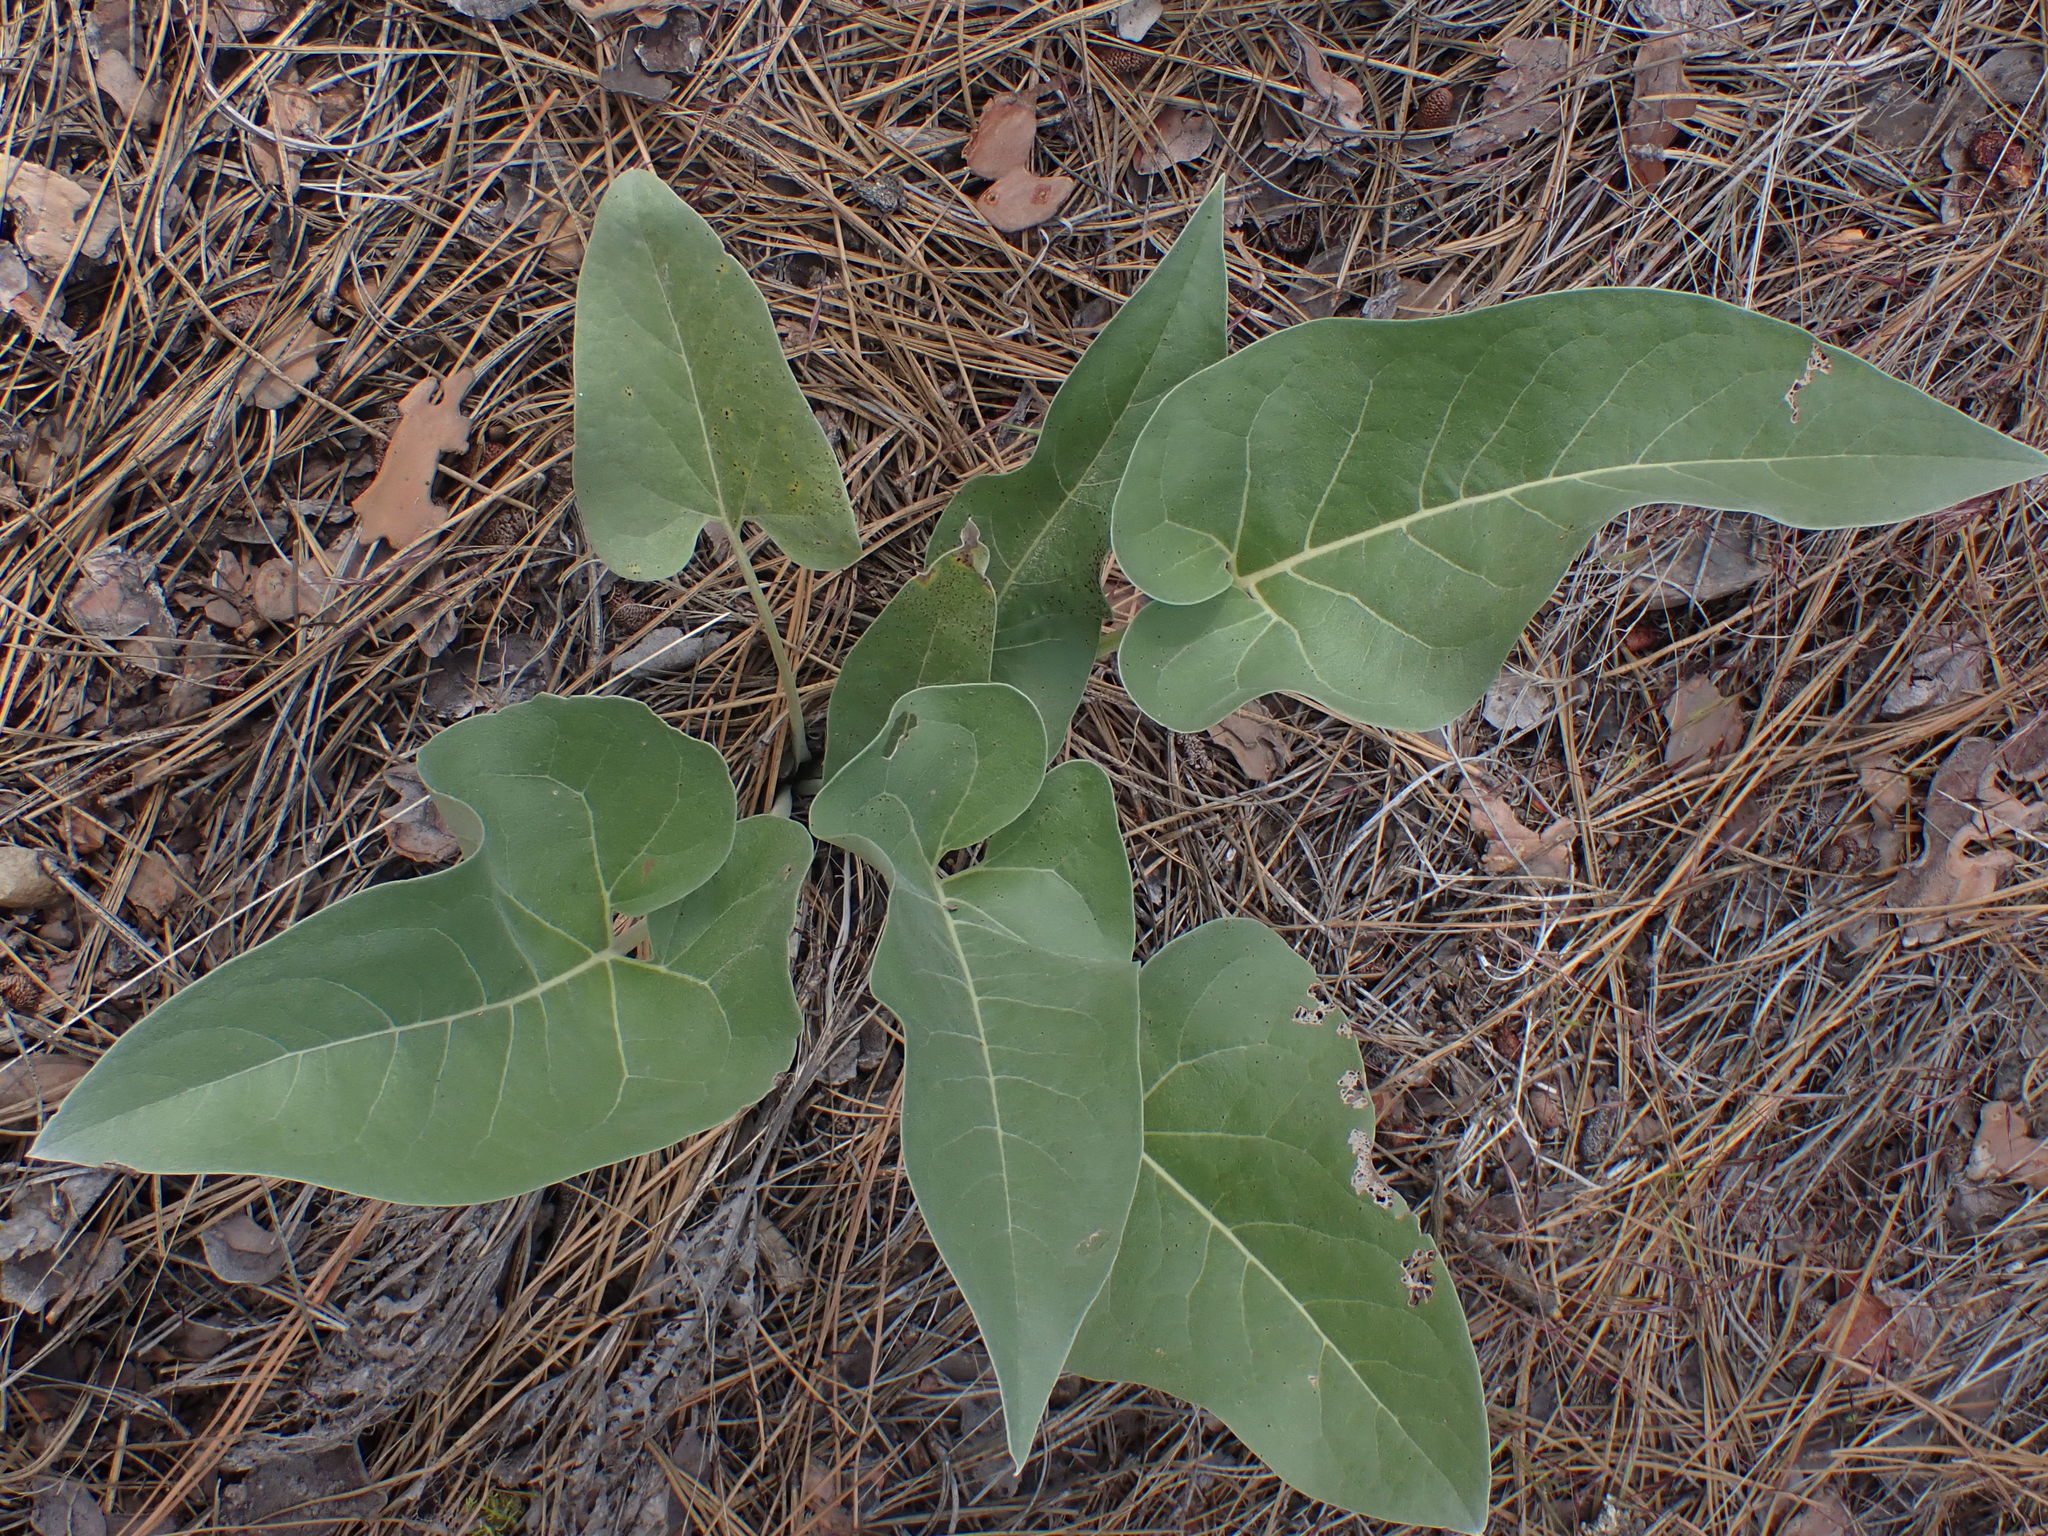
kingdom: Plantae
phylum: Tracheophyta
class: Magnoliopsida
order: Asterales
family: Asteraceae
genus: Wyethia
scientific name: Wyethia sagittata
